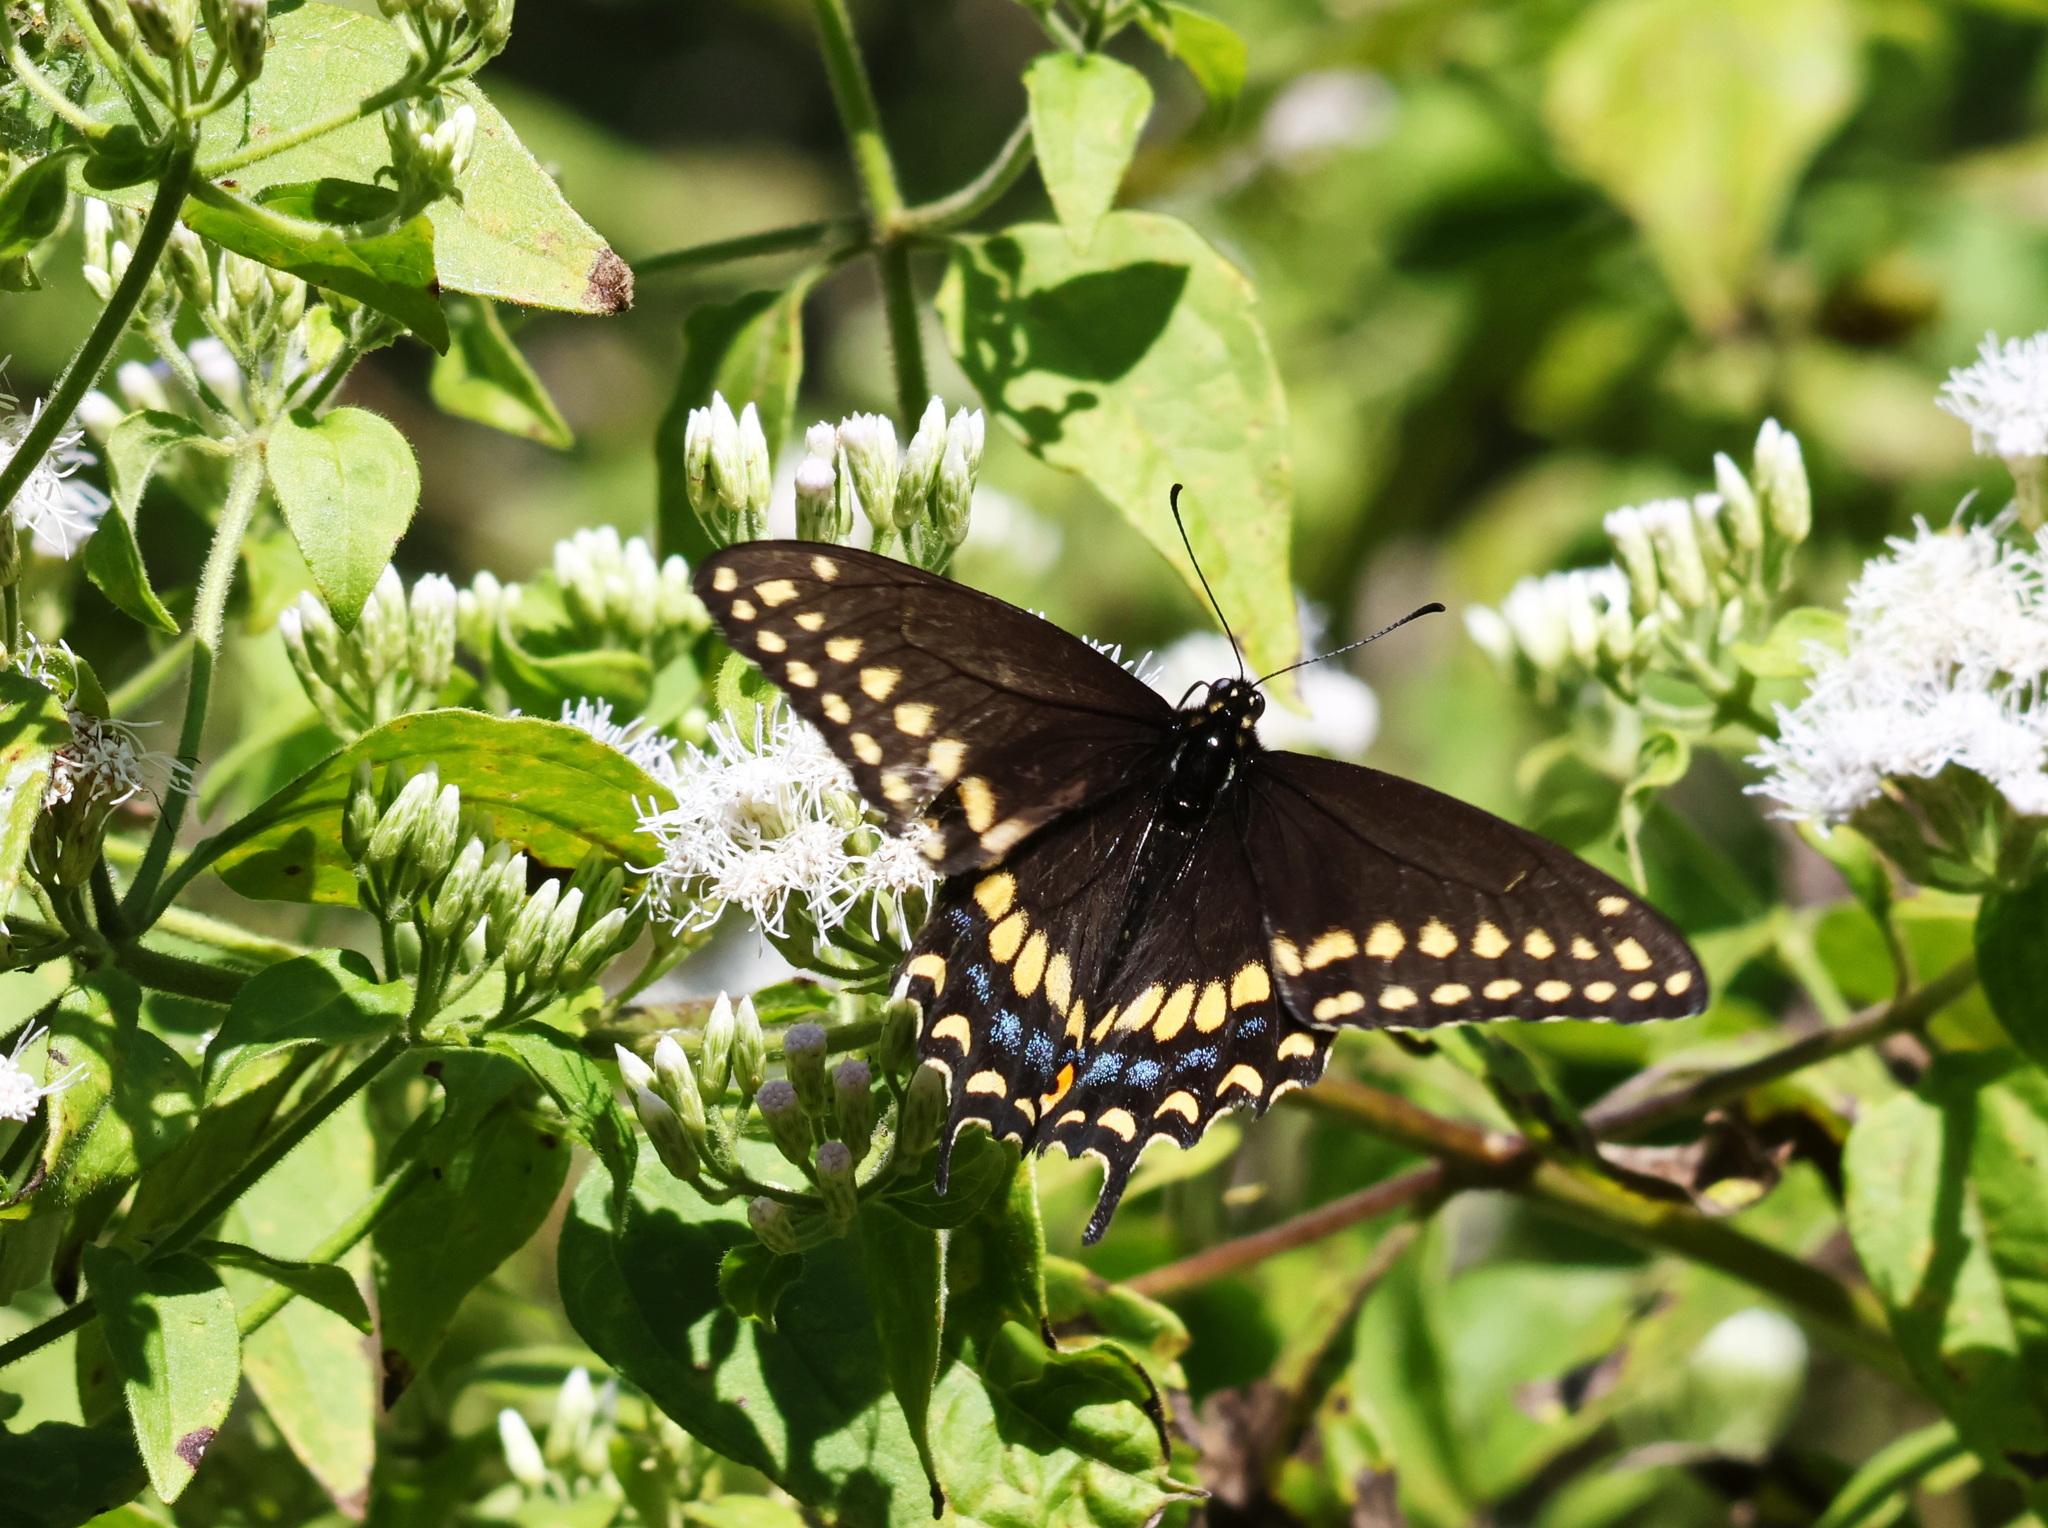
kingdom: Animalia
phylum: Arthropoda
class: Insecta
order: Lepidoptera
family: Papilionidae
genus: Papilio
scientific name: Papilio polyxenes
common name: Black swallowtail
